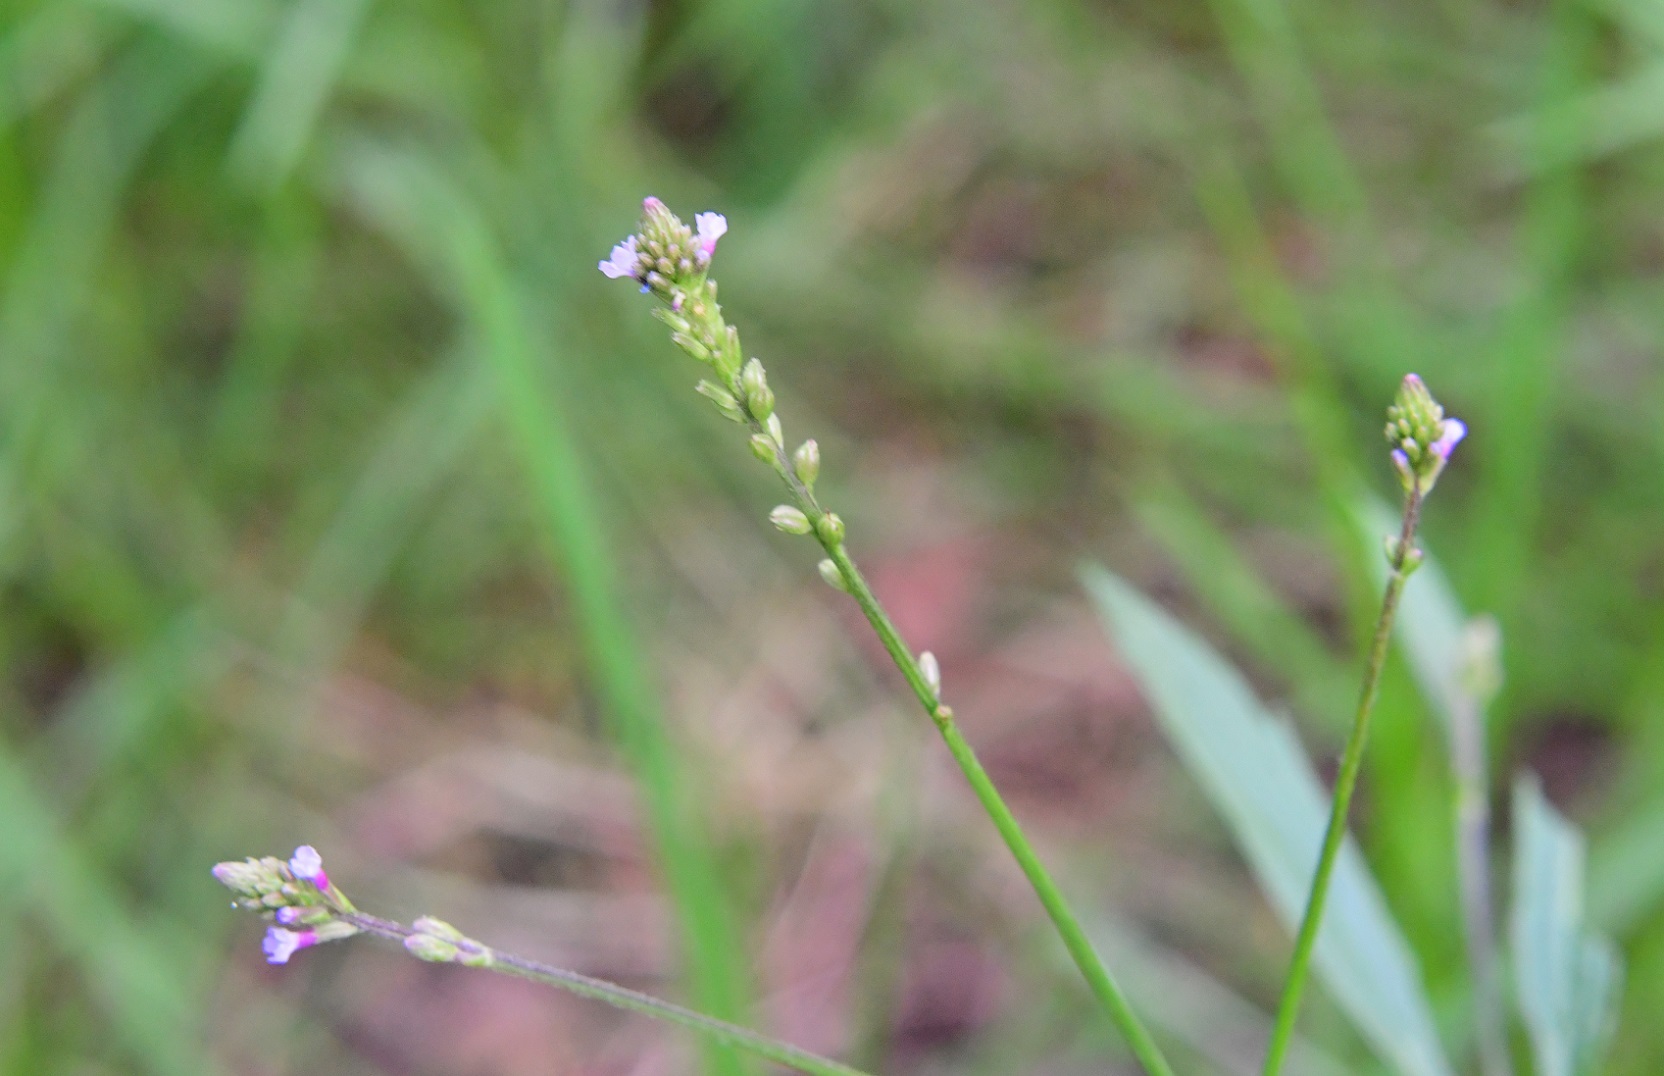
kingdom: Plantae
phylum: Tracheophyta
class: Magnoliopsida
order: Lamiales
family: Verbenaceae
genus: Verbena
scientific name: Verbena carolina
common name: Carolina vervain
